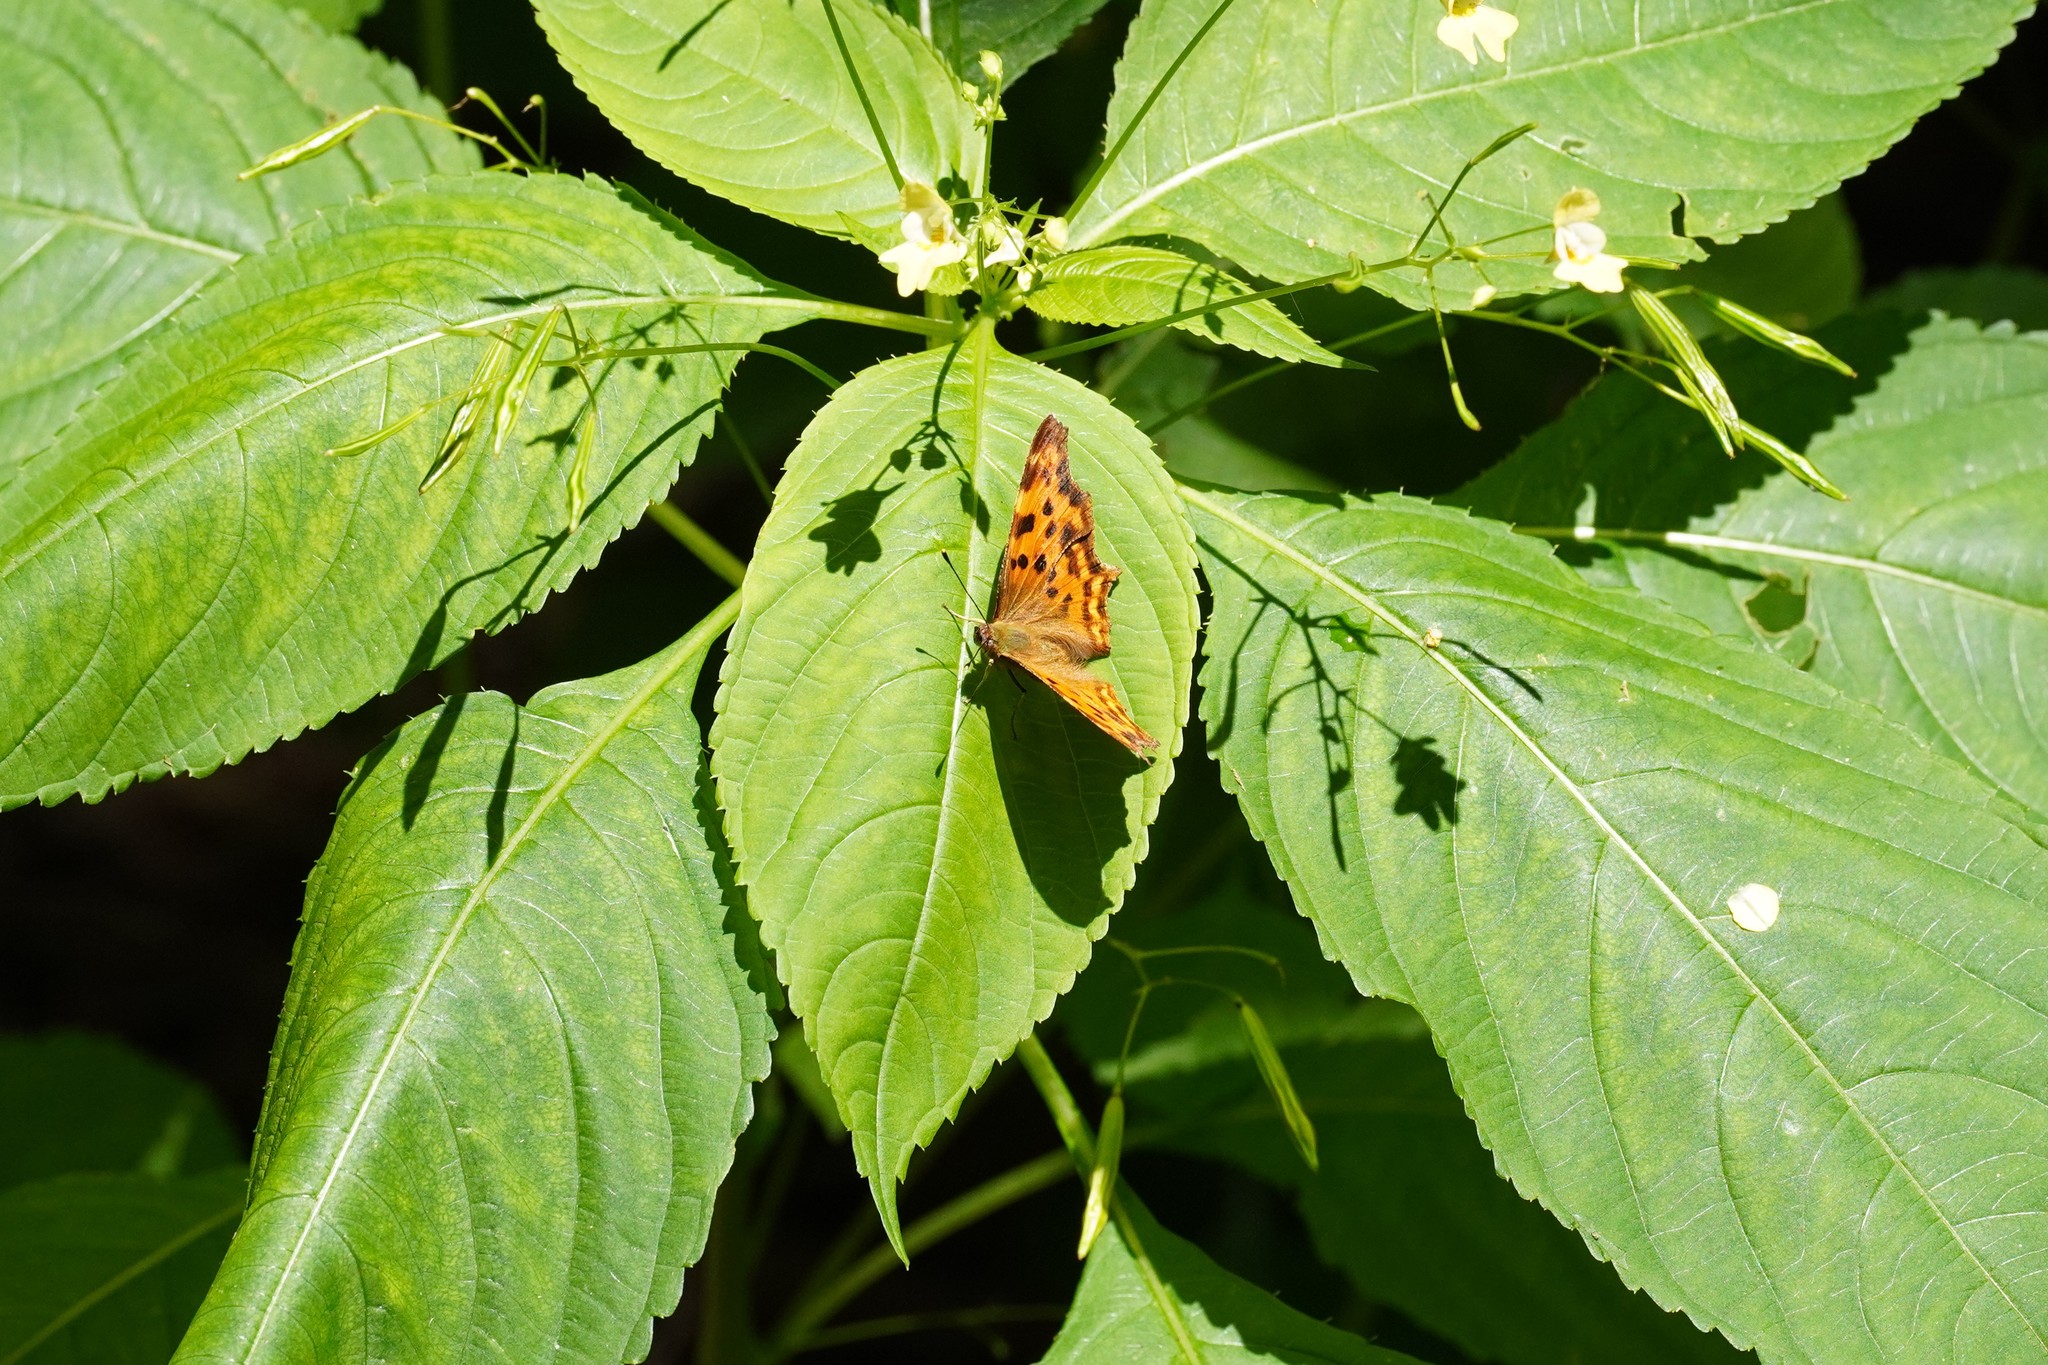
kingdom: Animalia
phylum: Arthropoda
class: Insecta
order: Lepidoptera
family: Nymphalidae
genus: Polygonia
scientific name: Polygonia c-album
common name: Comma
